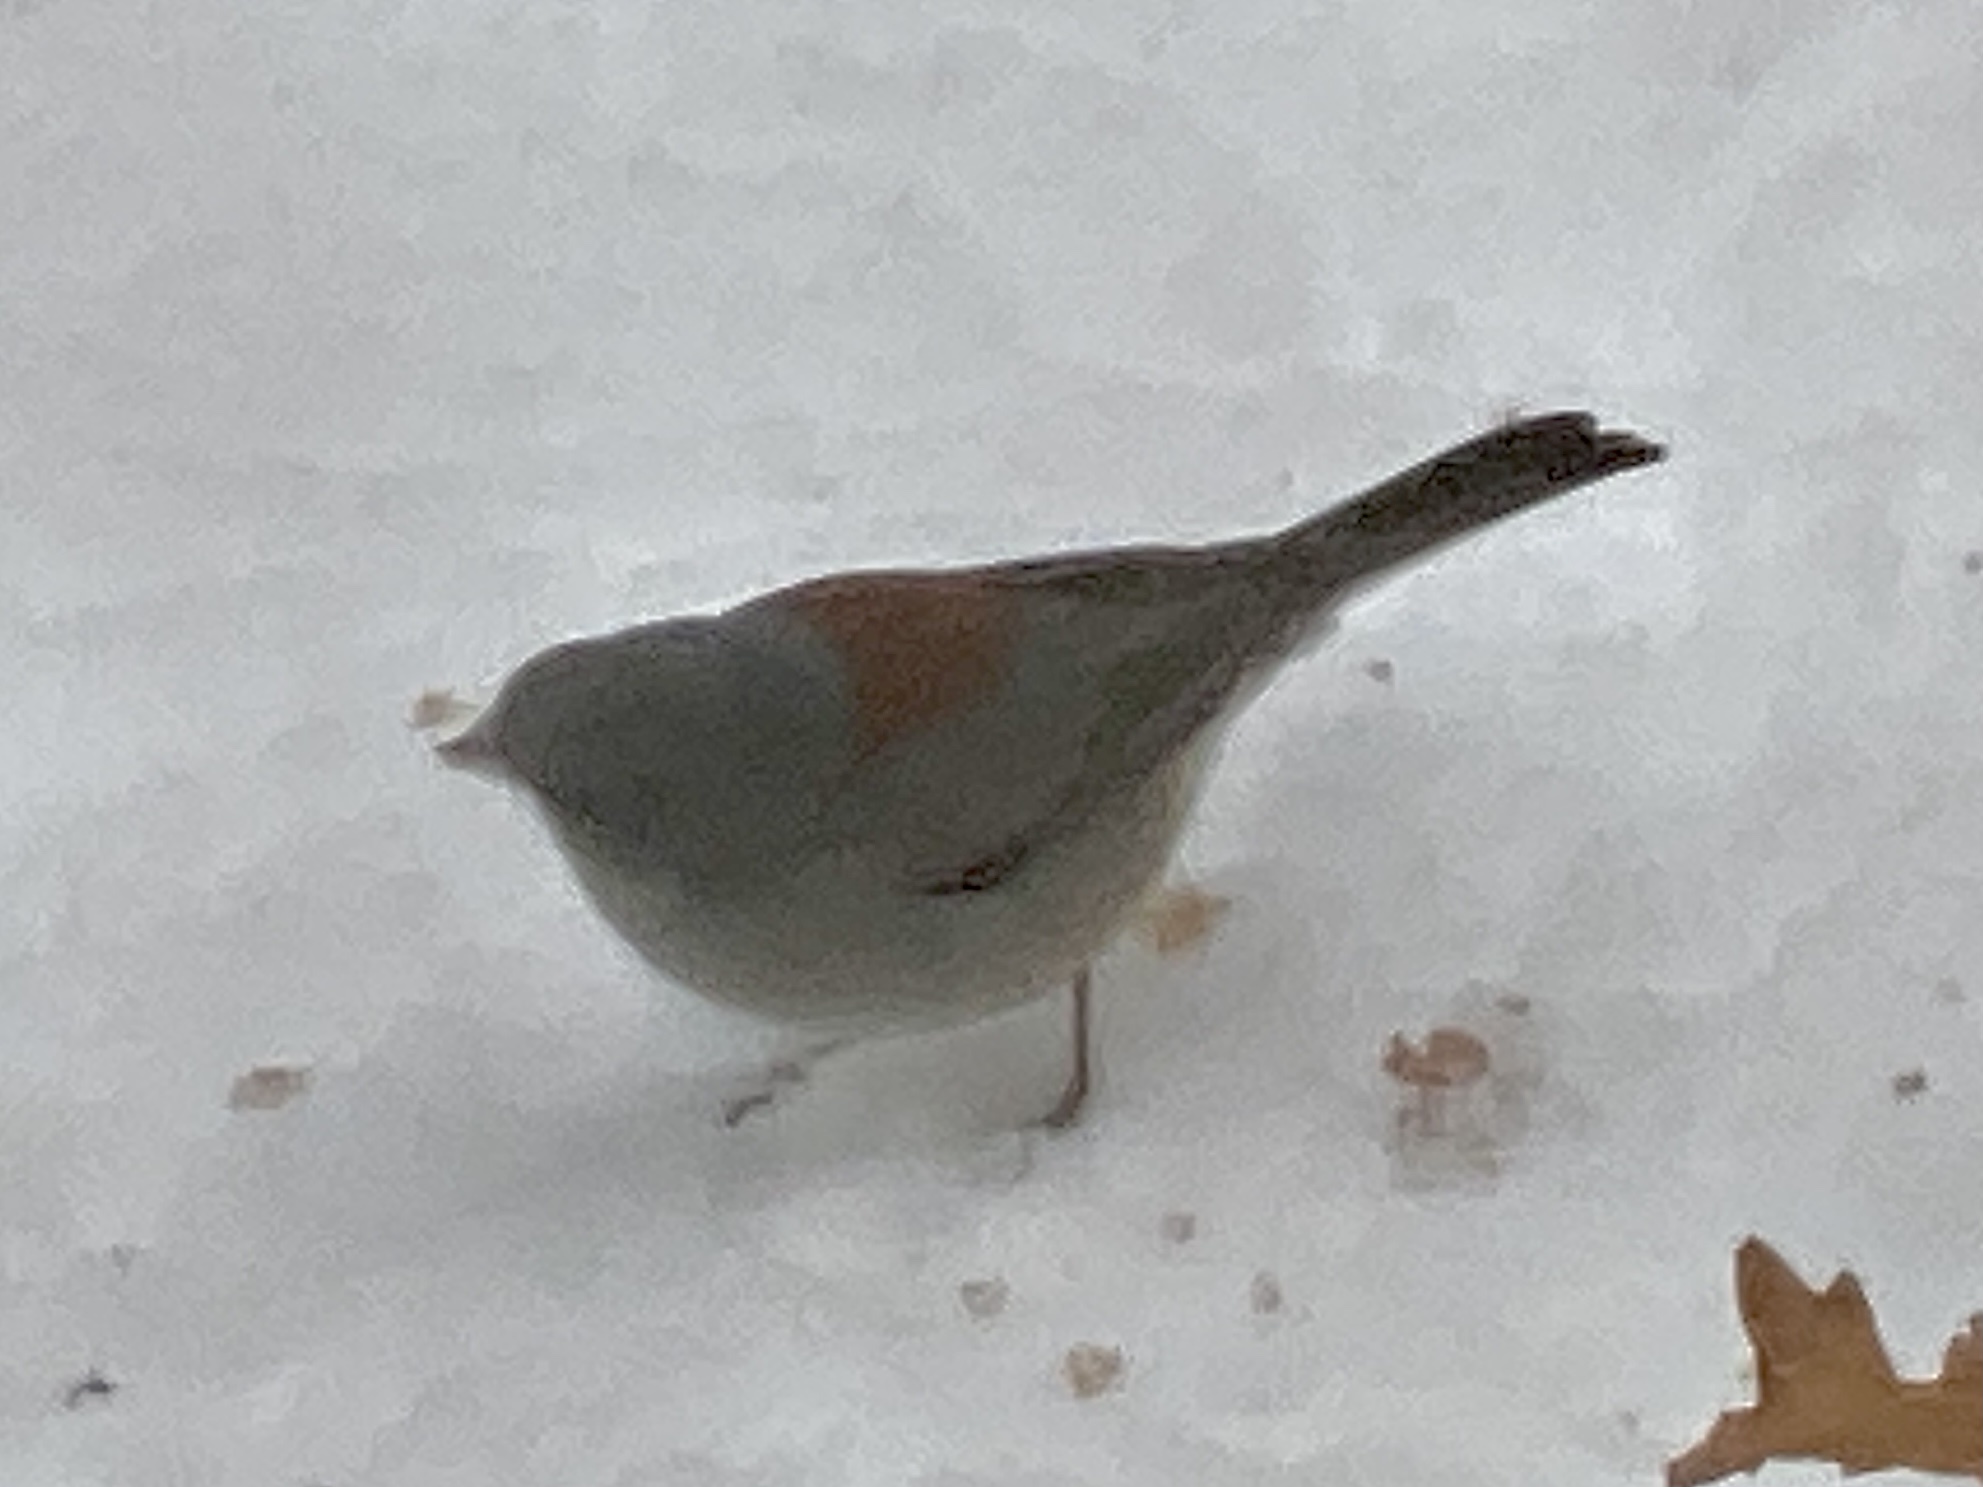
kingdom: Animalia
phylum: Chordata
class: Aves
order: Passeriformes
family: Passerellidae
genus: Junco
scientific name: Junco hyemalis
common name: Dark-eyed junco
